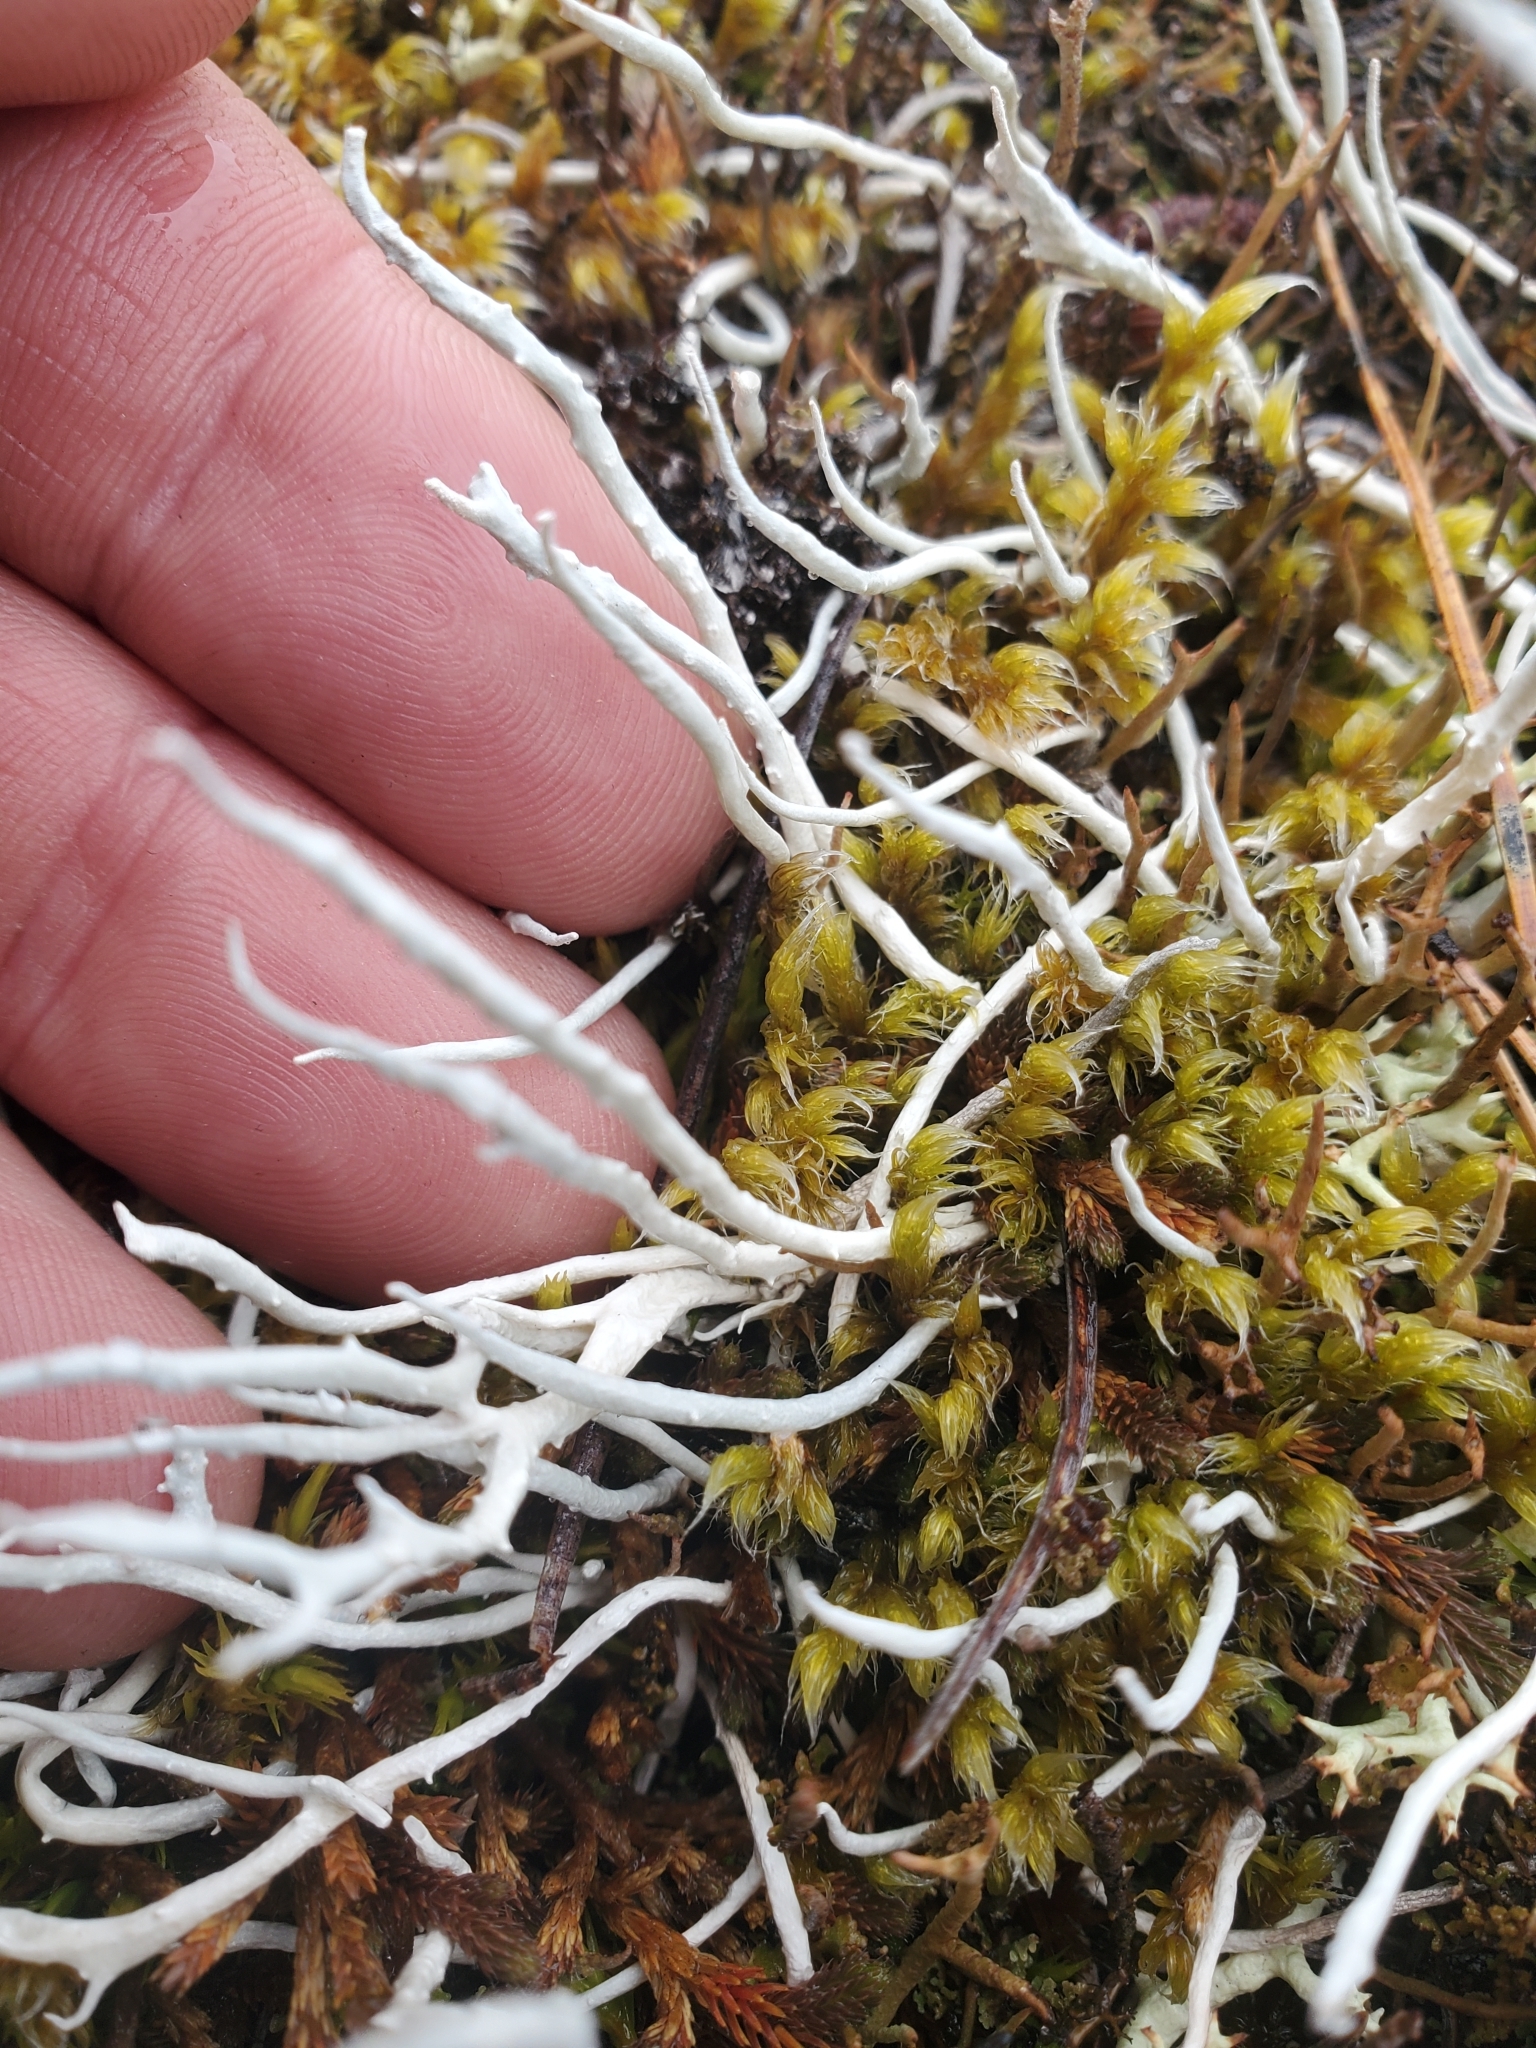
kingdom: Fungi
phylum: Ascomycota
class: Lecanoromycetes
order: Pertusariales
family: Icmadophilaceae
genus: Thamnolia
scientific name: Thamnolia vermicularis
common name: Whiteworm lichen
